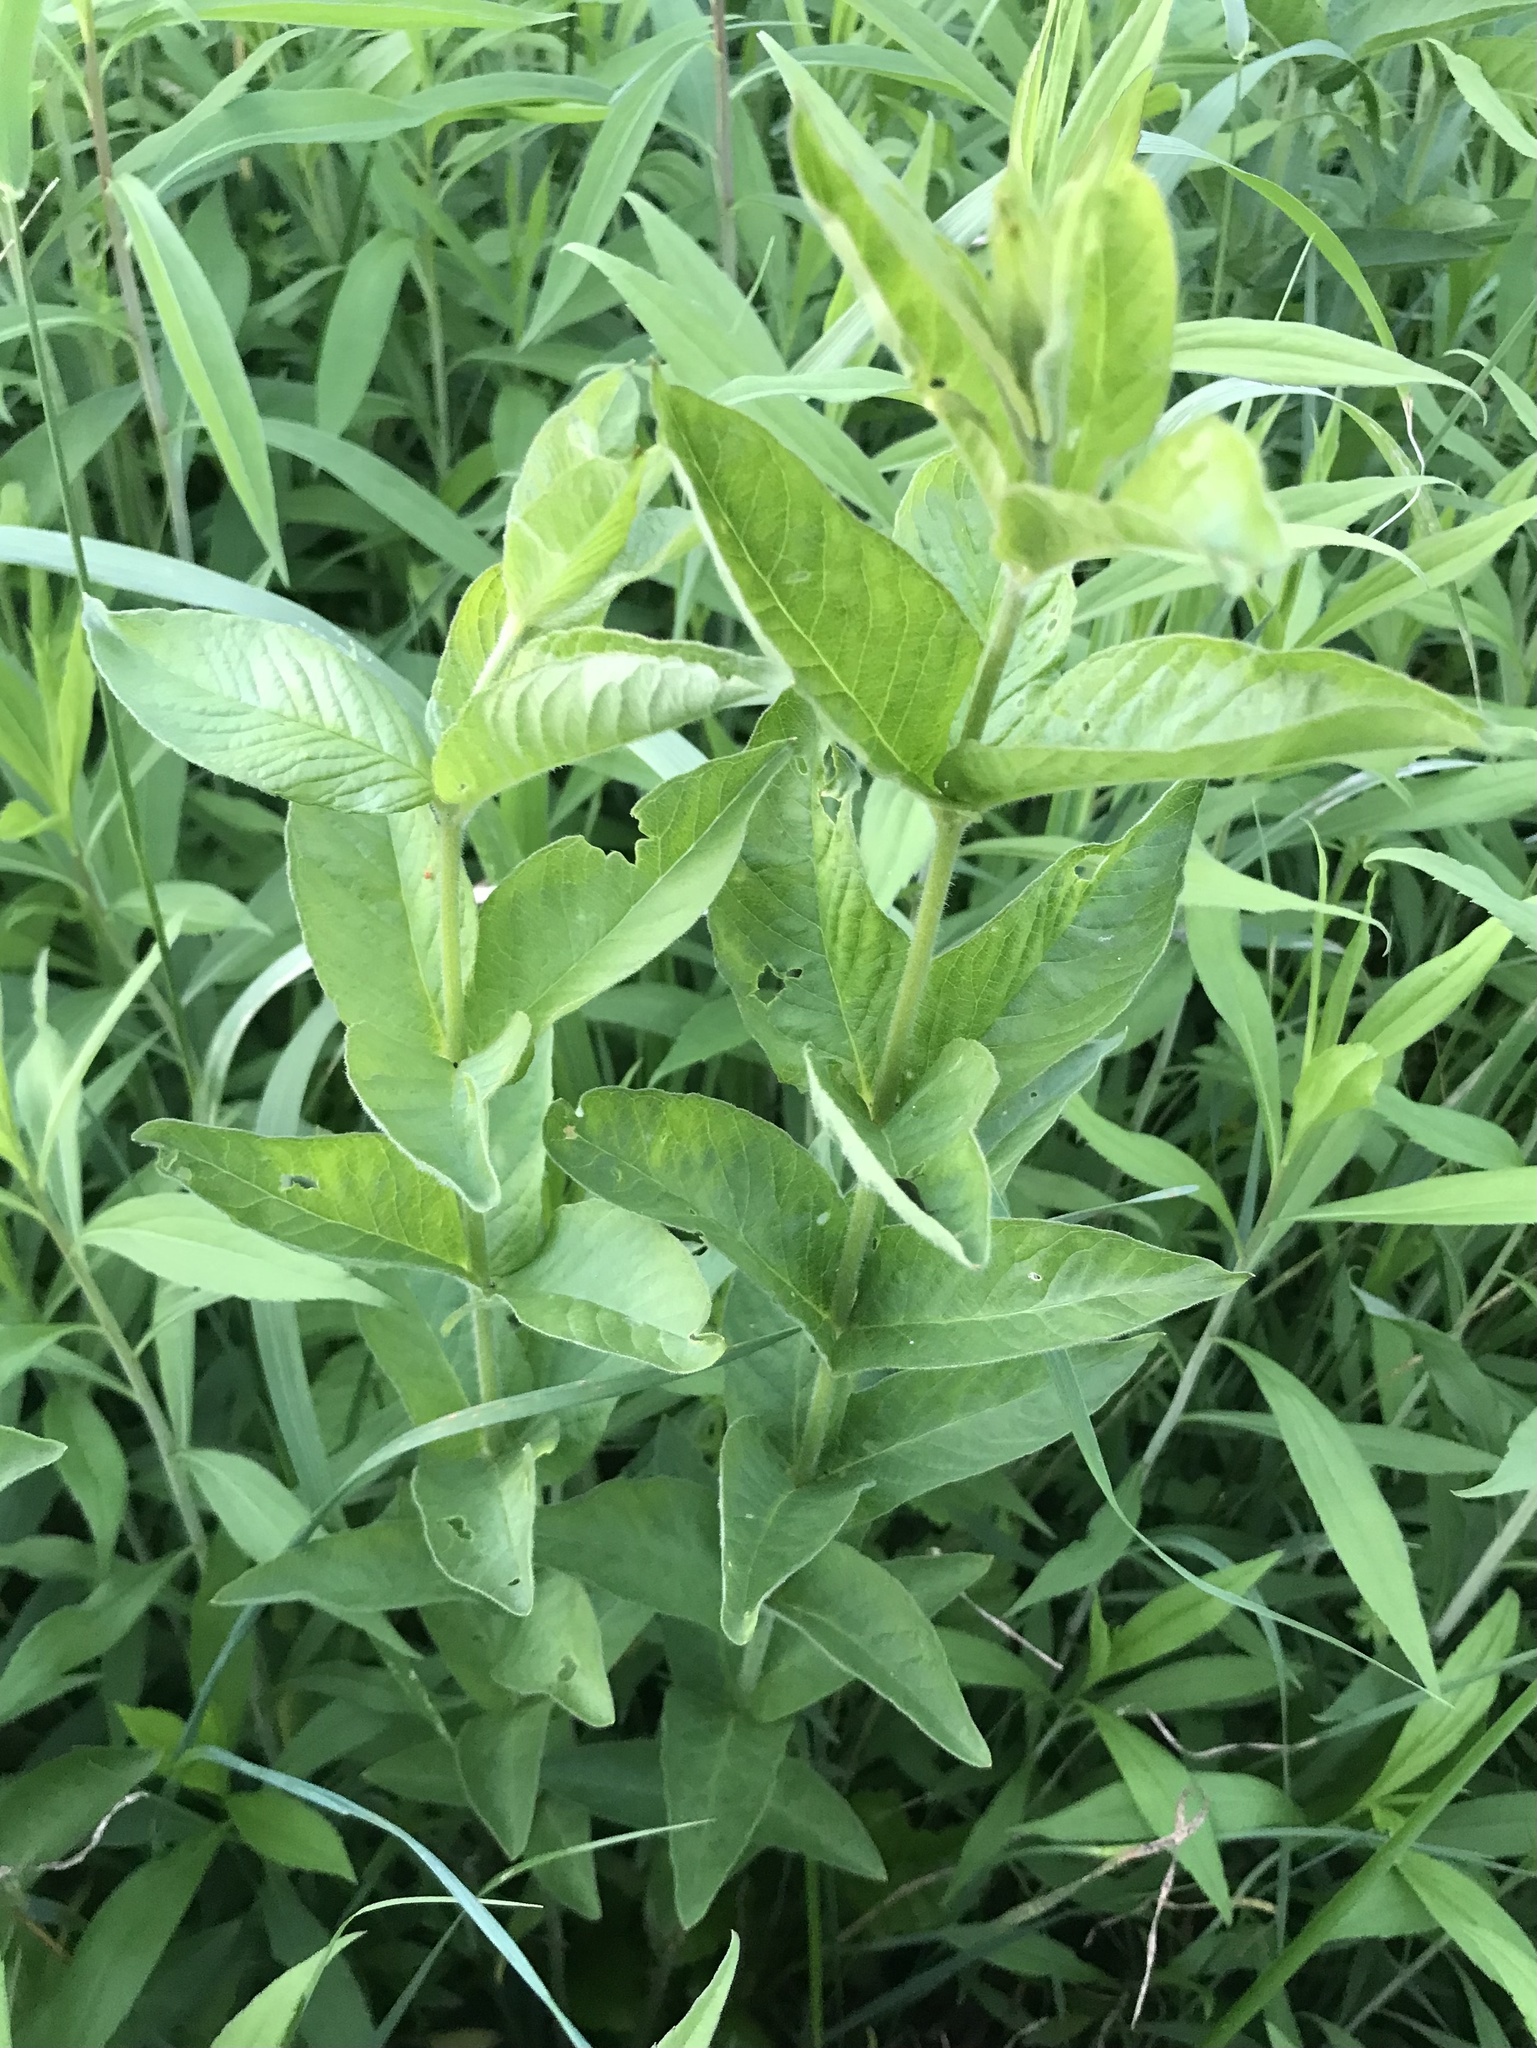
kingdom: Plantae
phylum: Tracheophyta
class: Magnoliopsida
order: Ericales
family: Primulaceae
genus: Lysimachia
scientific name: Lysimachia vulgaris
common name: Yellow loosestrife
